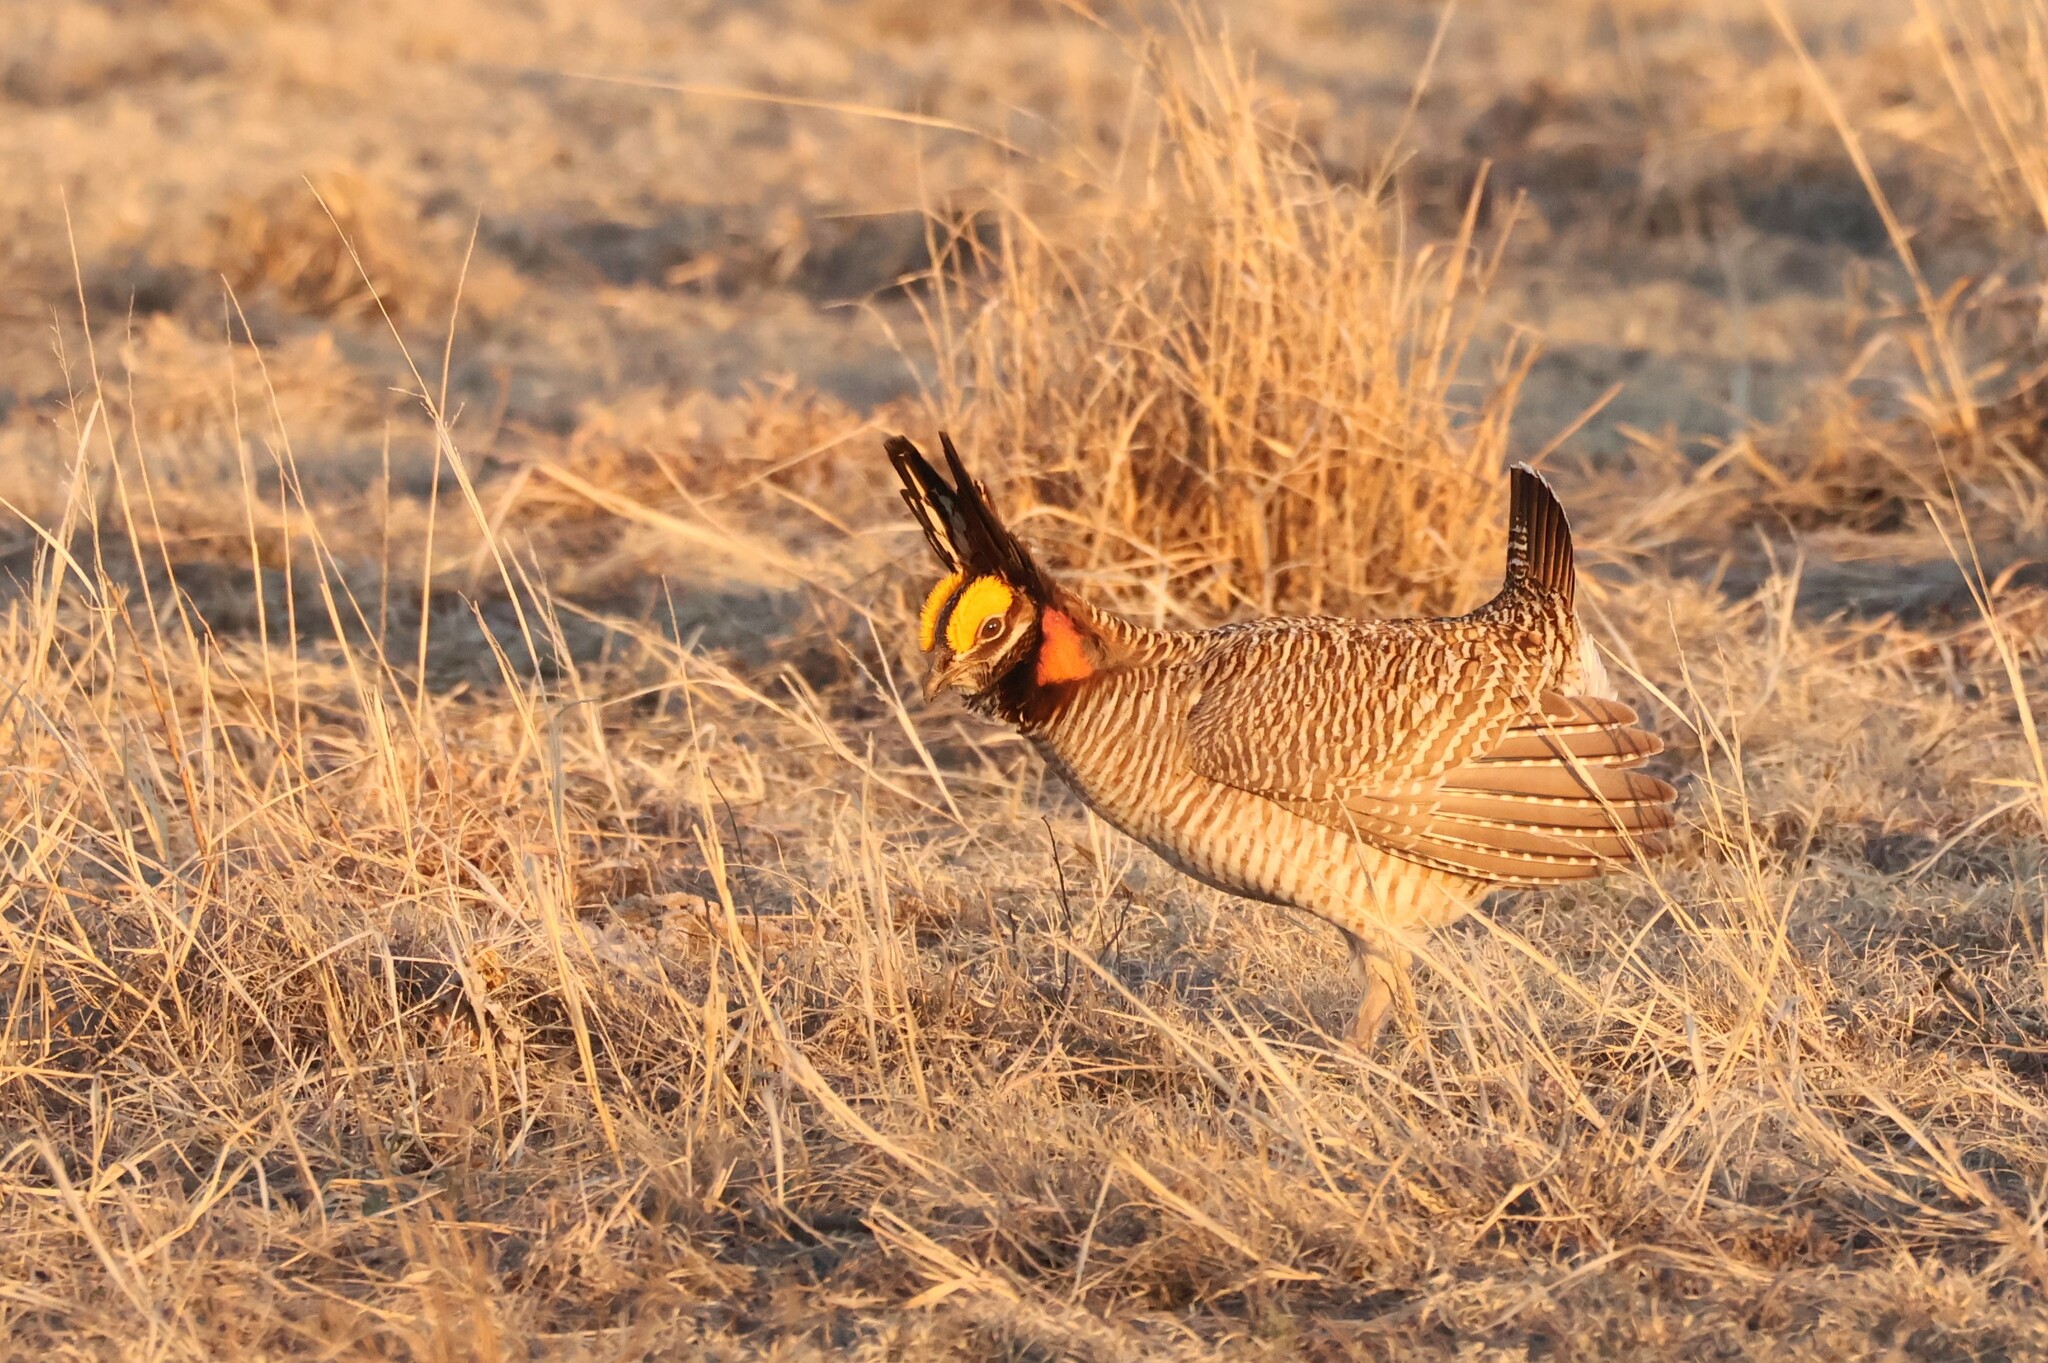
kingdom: Animalia
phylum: Chordata
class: Aves
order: Galliformes
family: Phasianidae
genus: Tympanuchus
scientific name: Tympanuchus pallidicinctus
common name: Lesser prairie chicken
